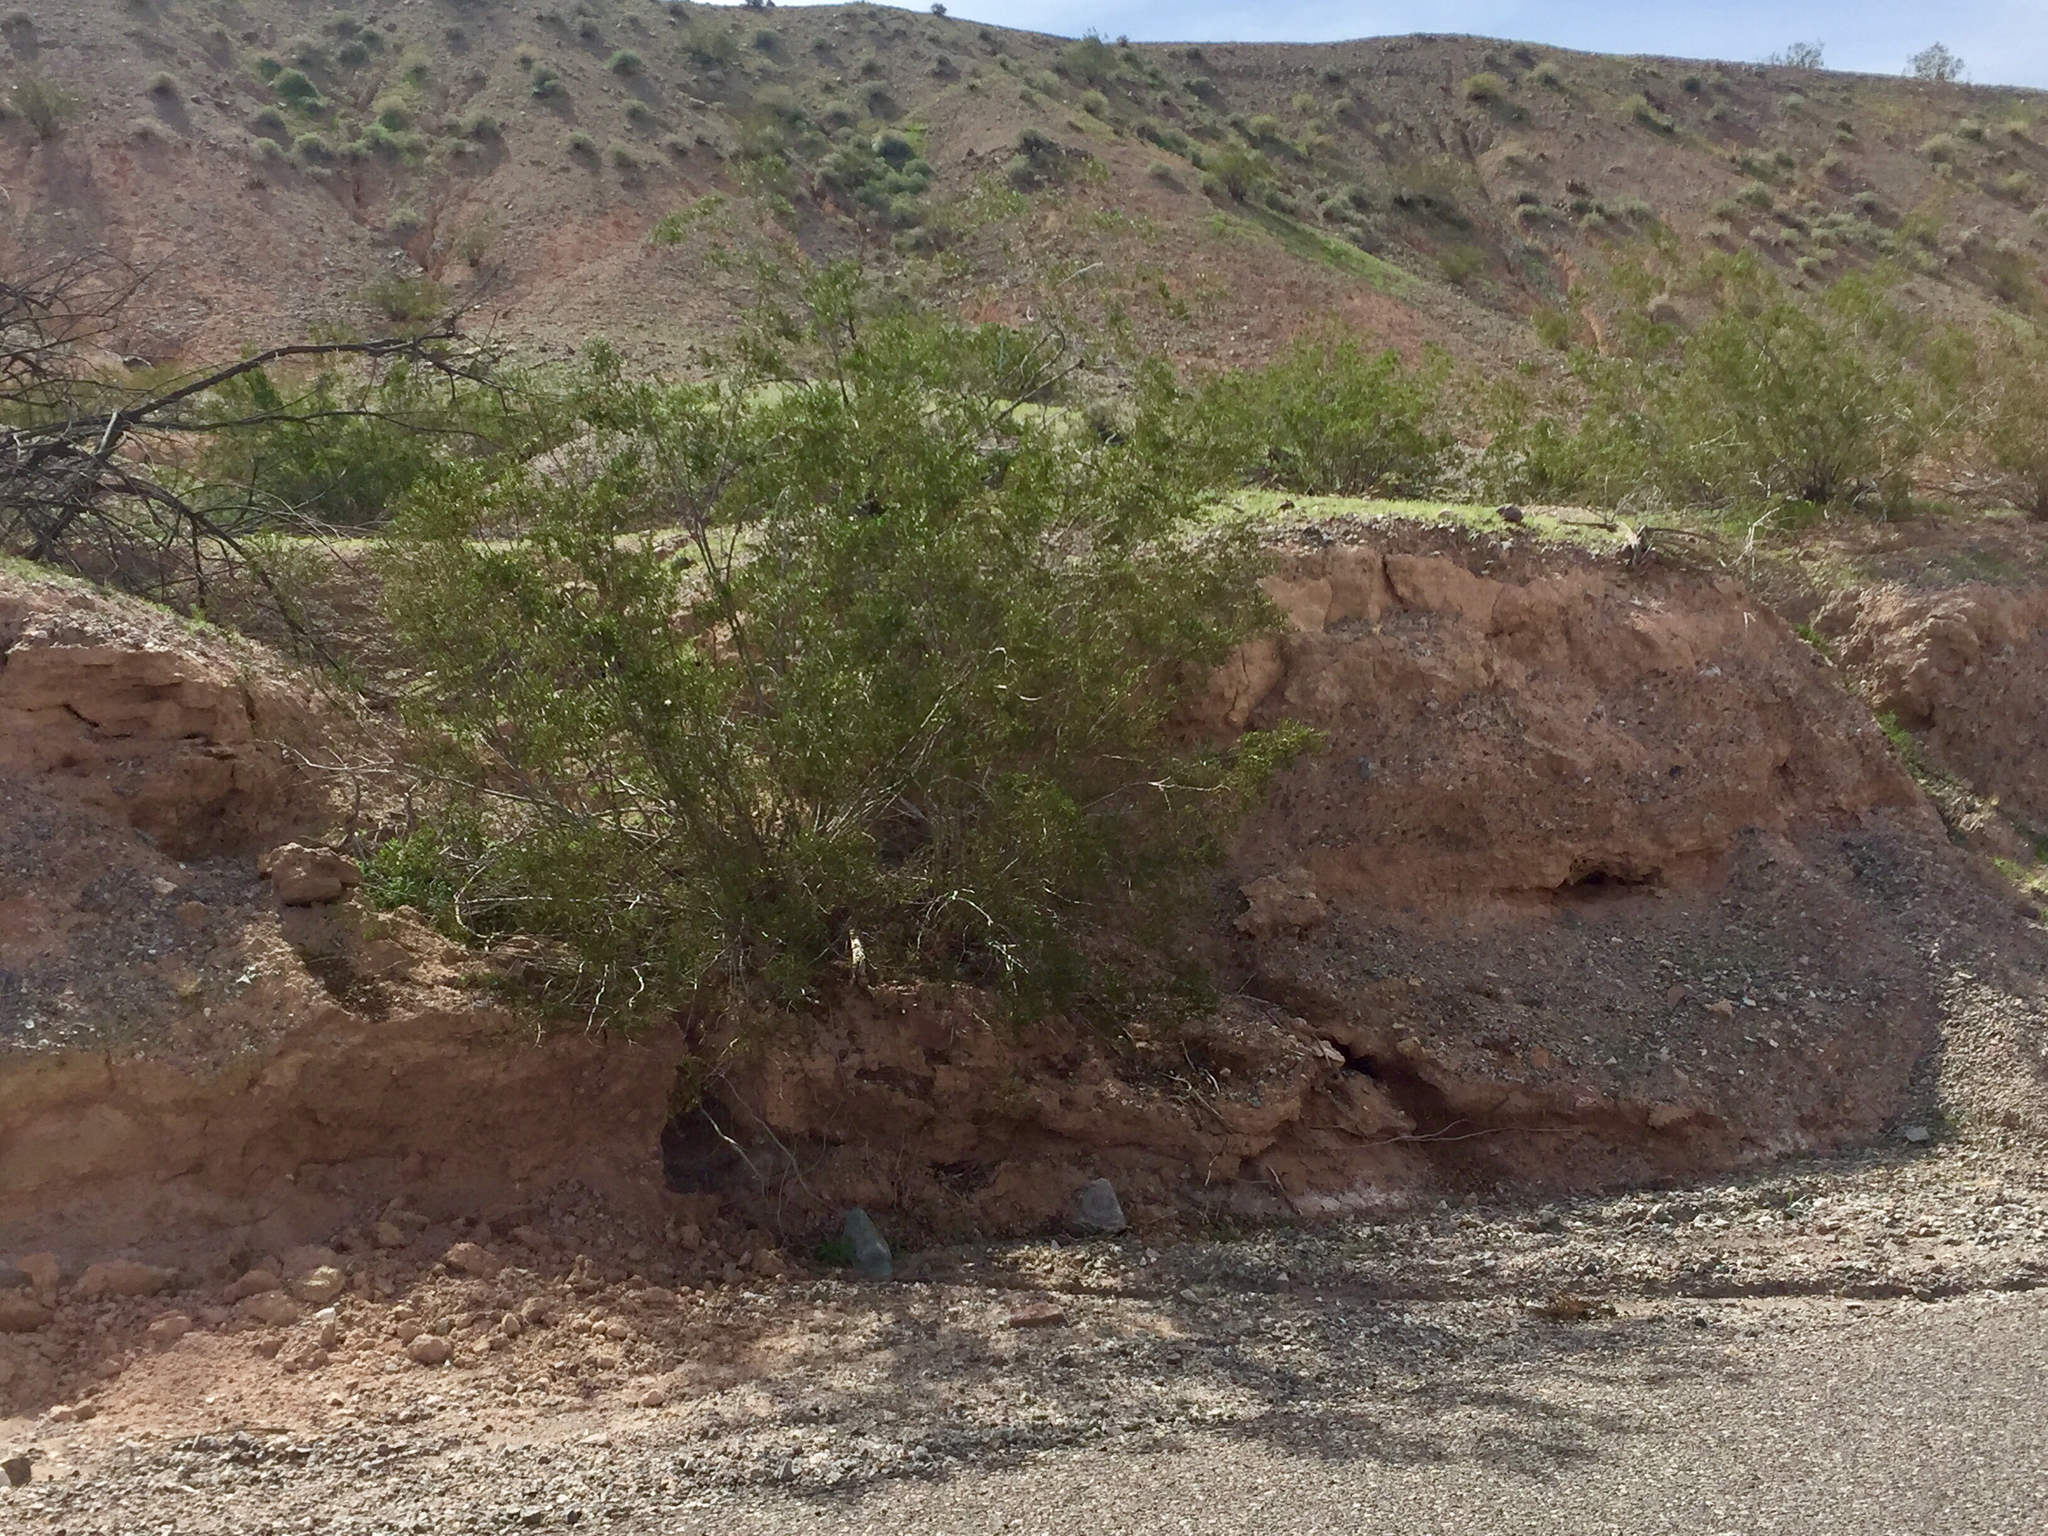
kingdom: Plantae
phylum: Tracheophyta
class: Magnoliopsida
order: Zygophyllales
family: Zygophyllaceae
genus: Larrea
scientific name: Larrea tridentata
